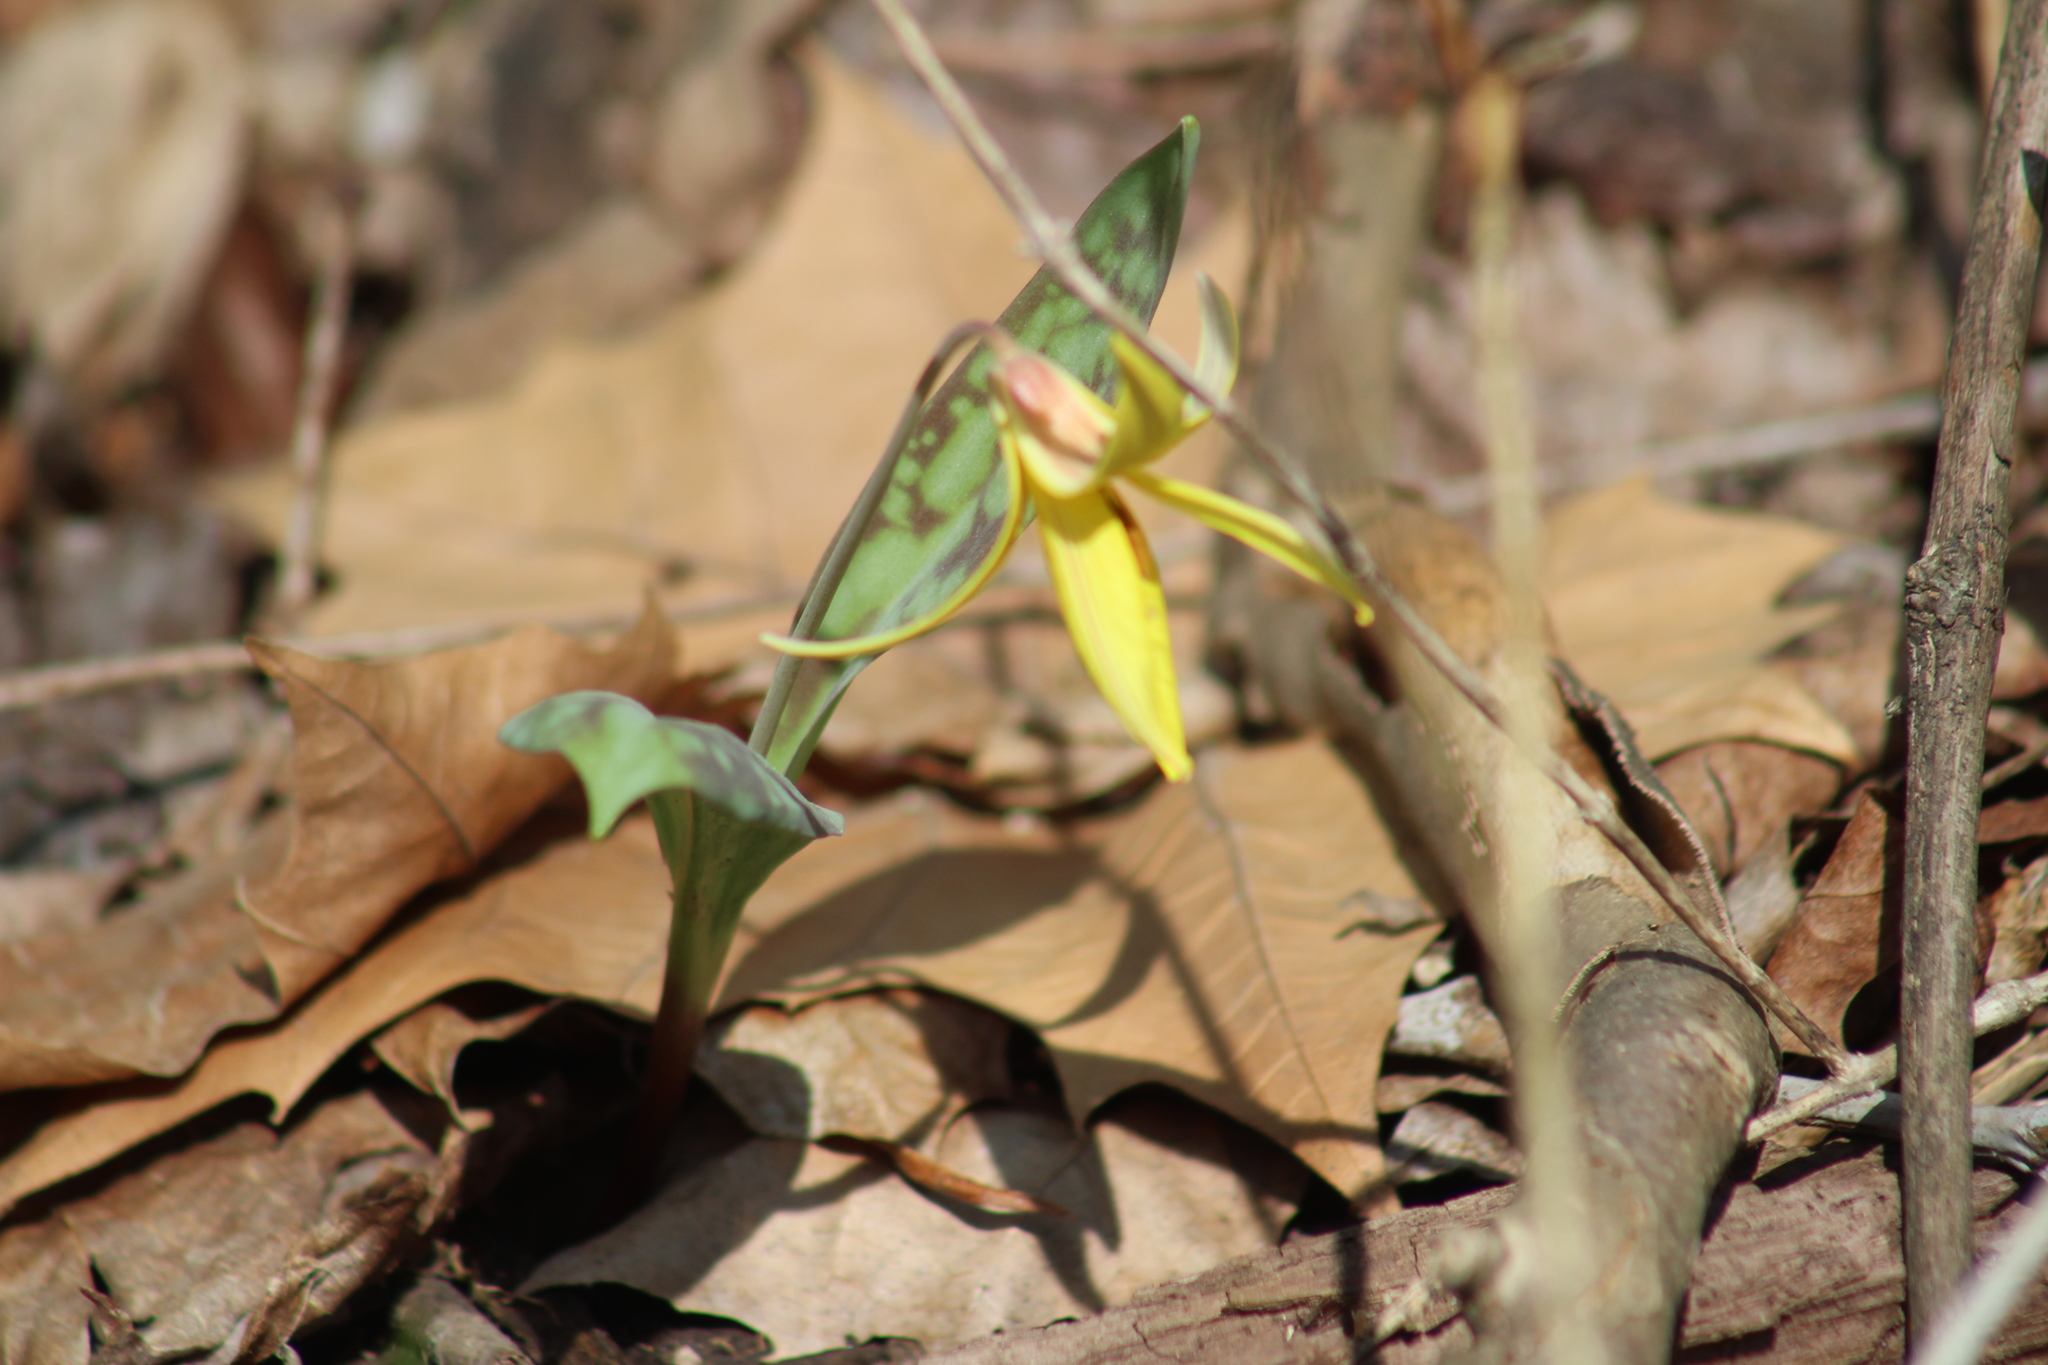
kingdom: Plantae
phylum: Tracheophyta
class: Liliopsida
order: Liliales
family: Liliaceae
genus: Erythronium
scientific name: Erythronium americanum
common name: Yellow adder's-tongue
